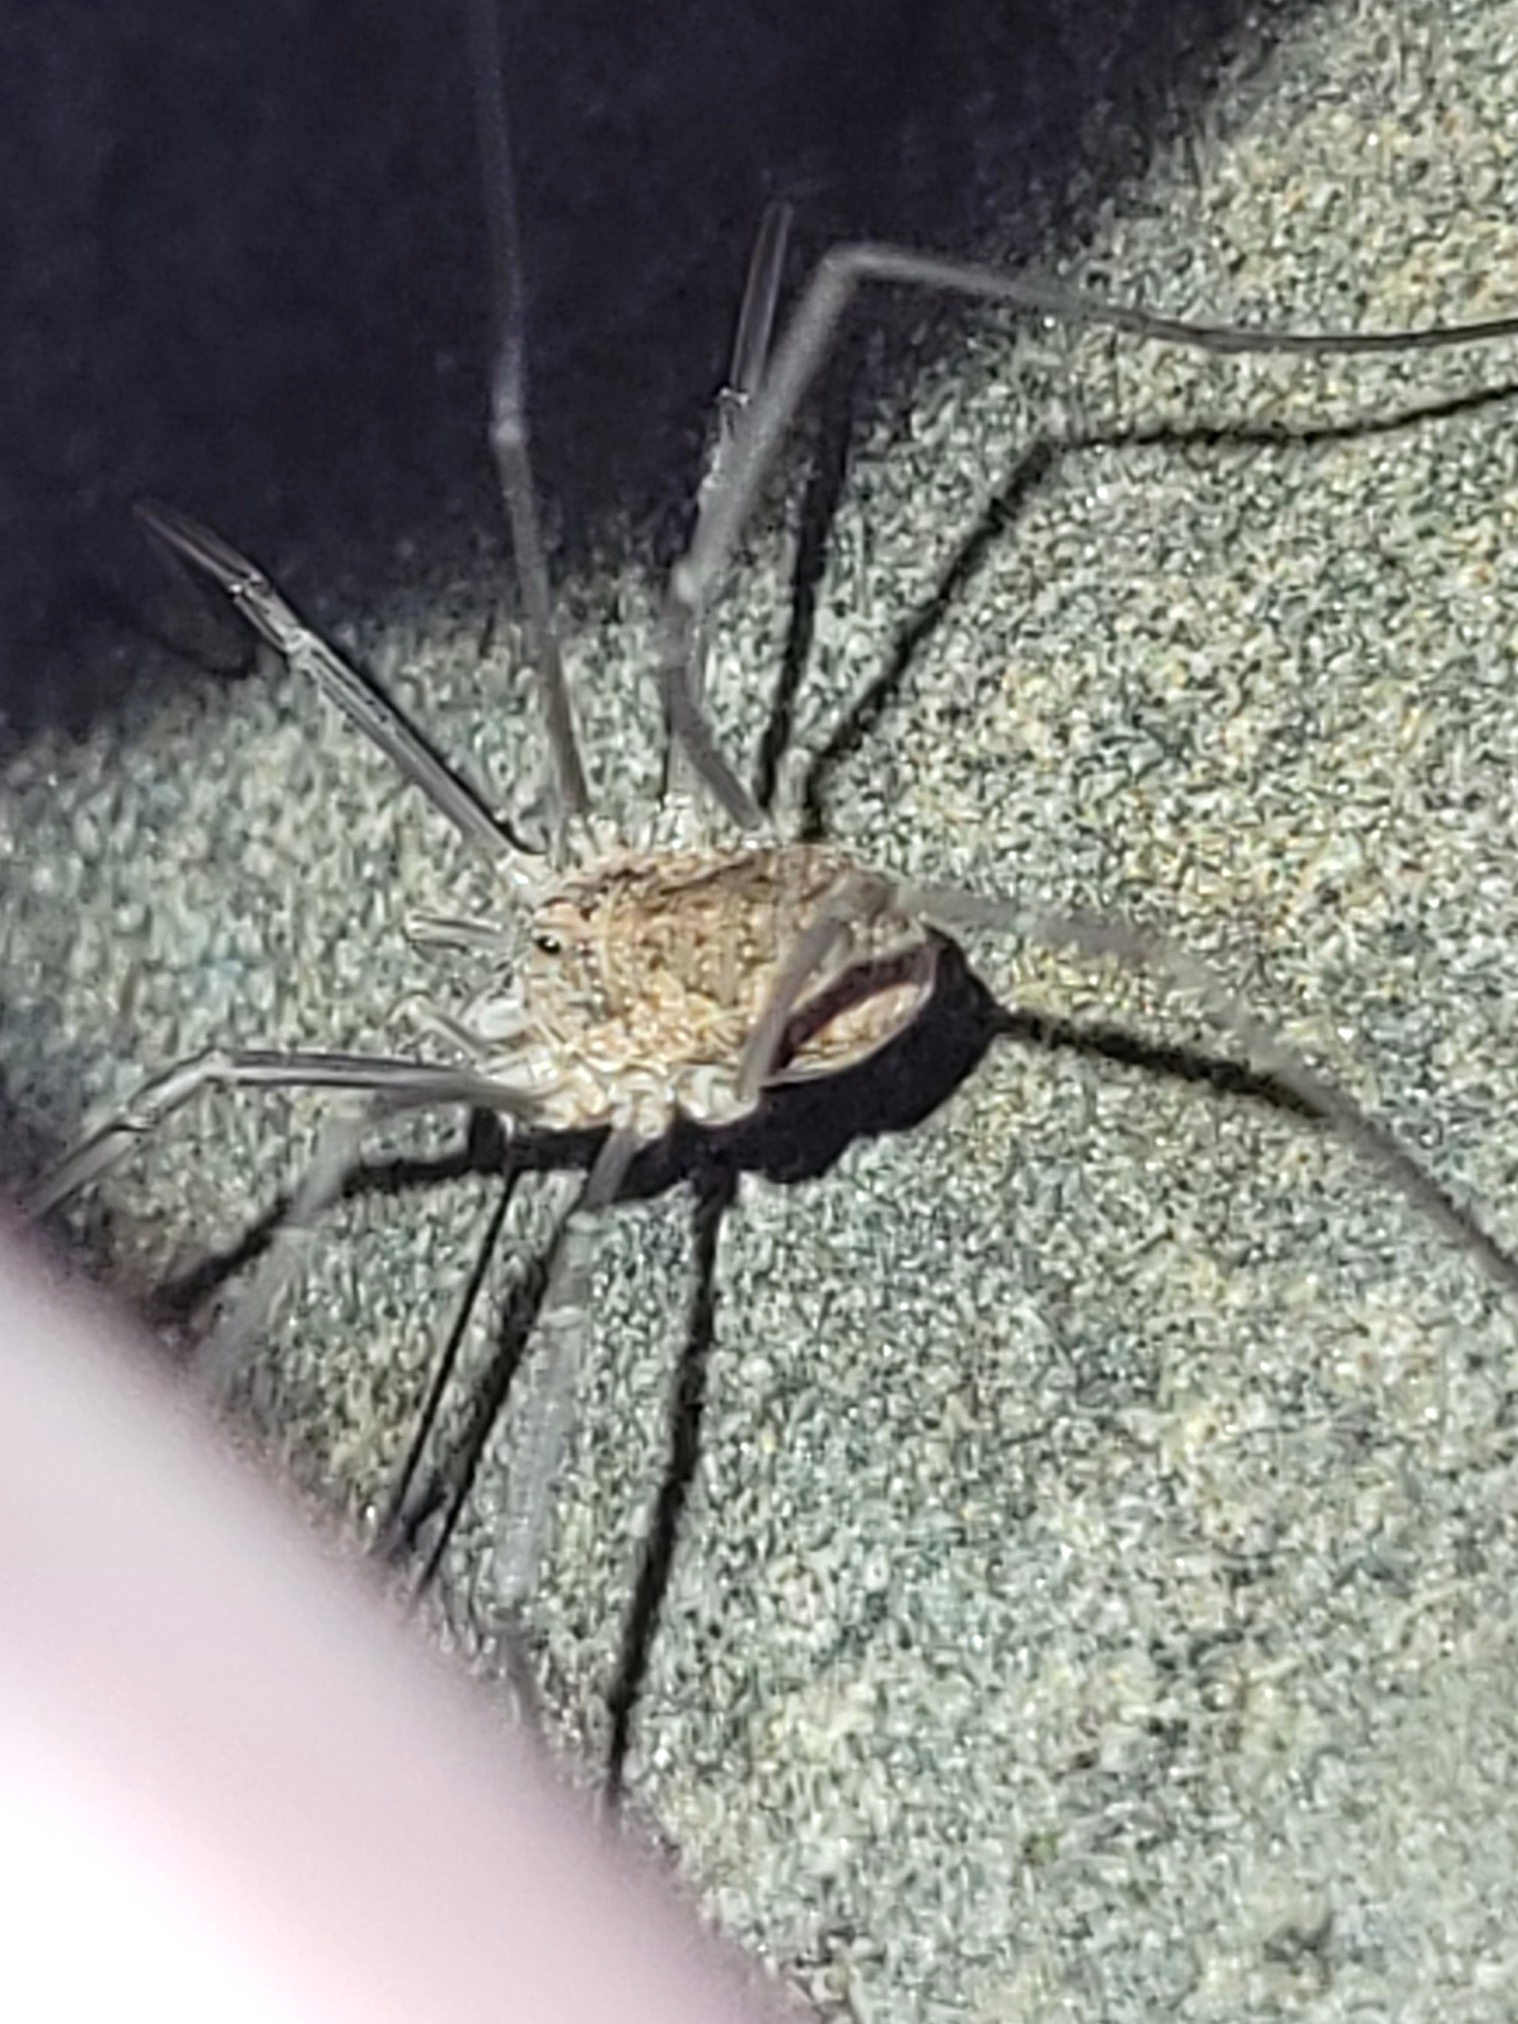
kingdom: Animalia
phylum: Arthropoda
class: Arachnida
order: Opiliones
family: Phalangiidae
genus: Phalangium
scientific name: Phalangium opilio
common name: Daddy longleg
